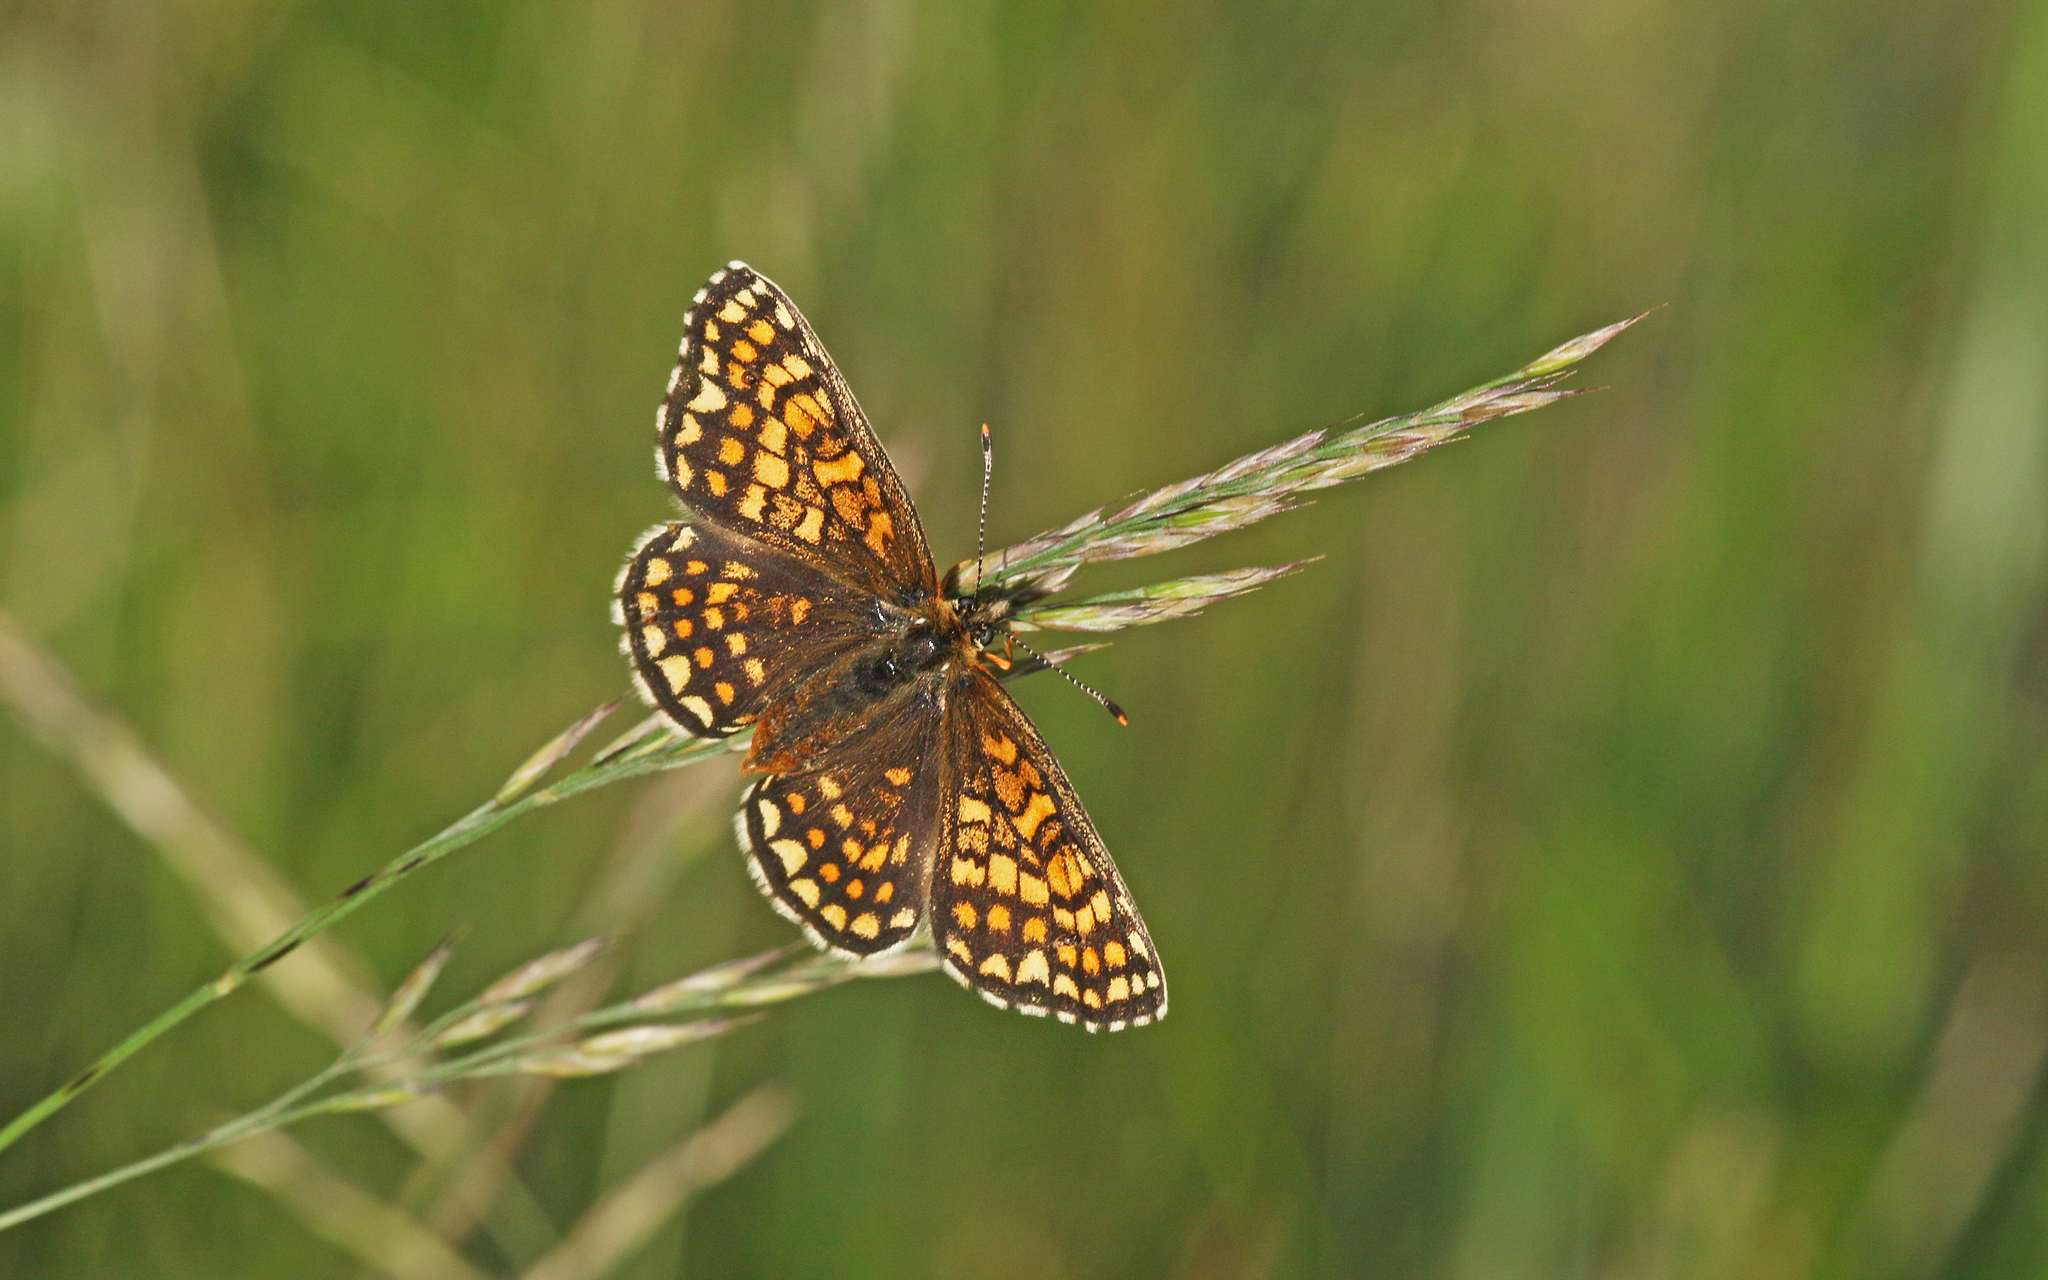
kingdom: Animalia
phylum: Arthropoda
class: Insecta
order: Lepidoptera
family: Nymphalidae
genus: Melitaea
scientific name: Melitaea athalia
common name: Heath fritillary
